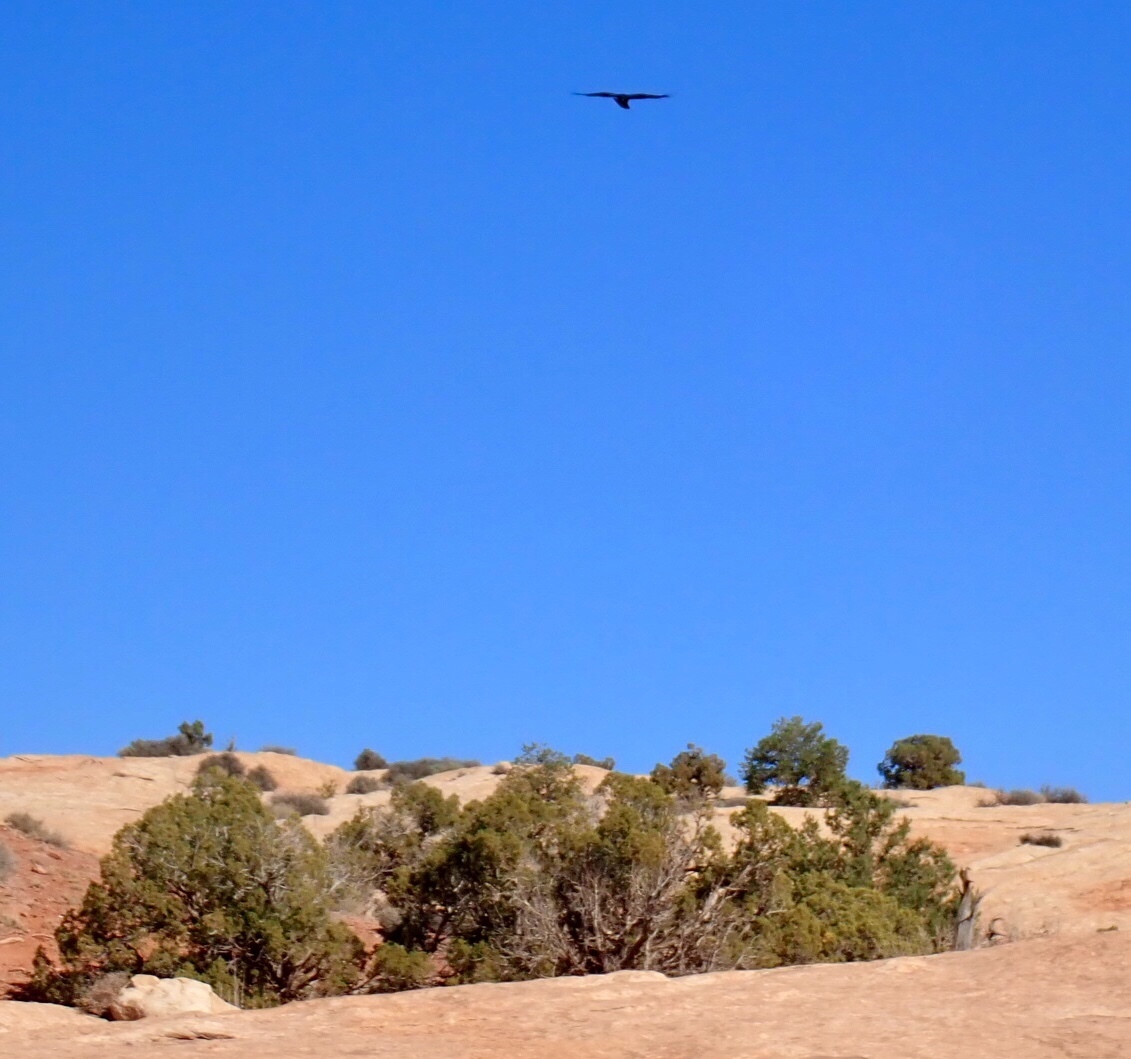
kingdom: Animalia
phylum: Chordata
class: Aves
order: Passeriformes
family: Corvidae
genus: Corvus
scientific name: Corvus corax
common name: Common raven
